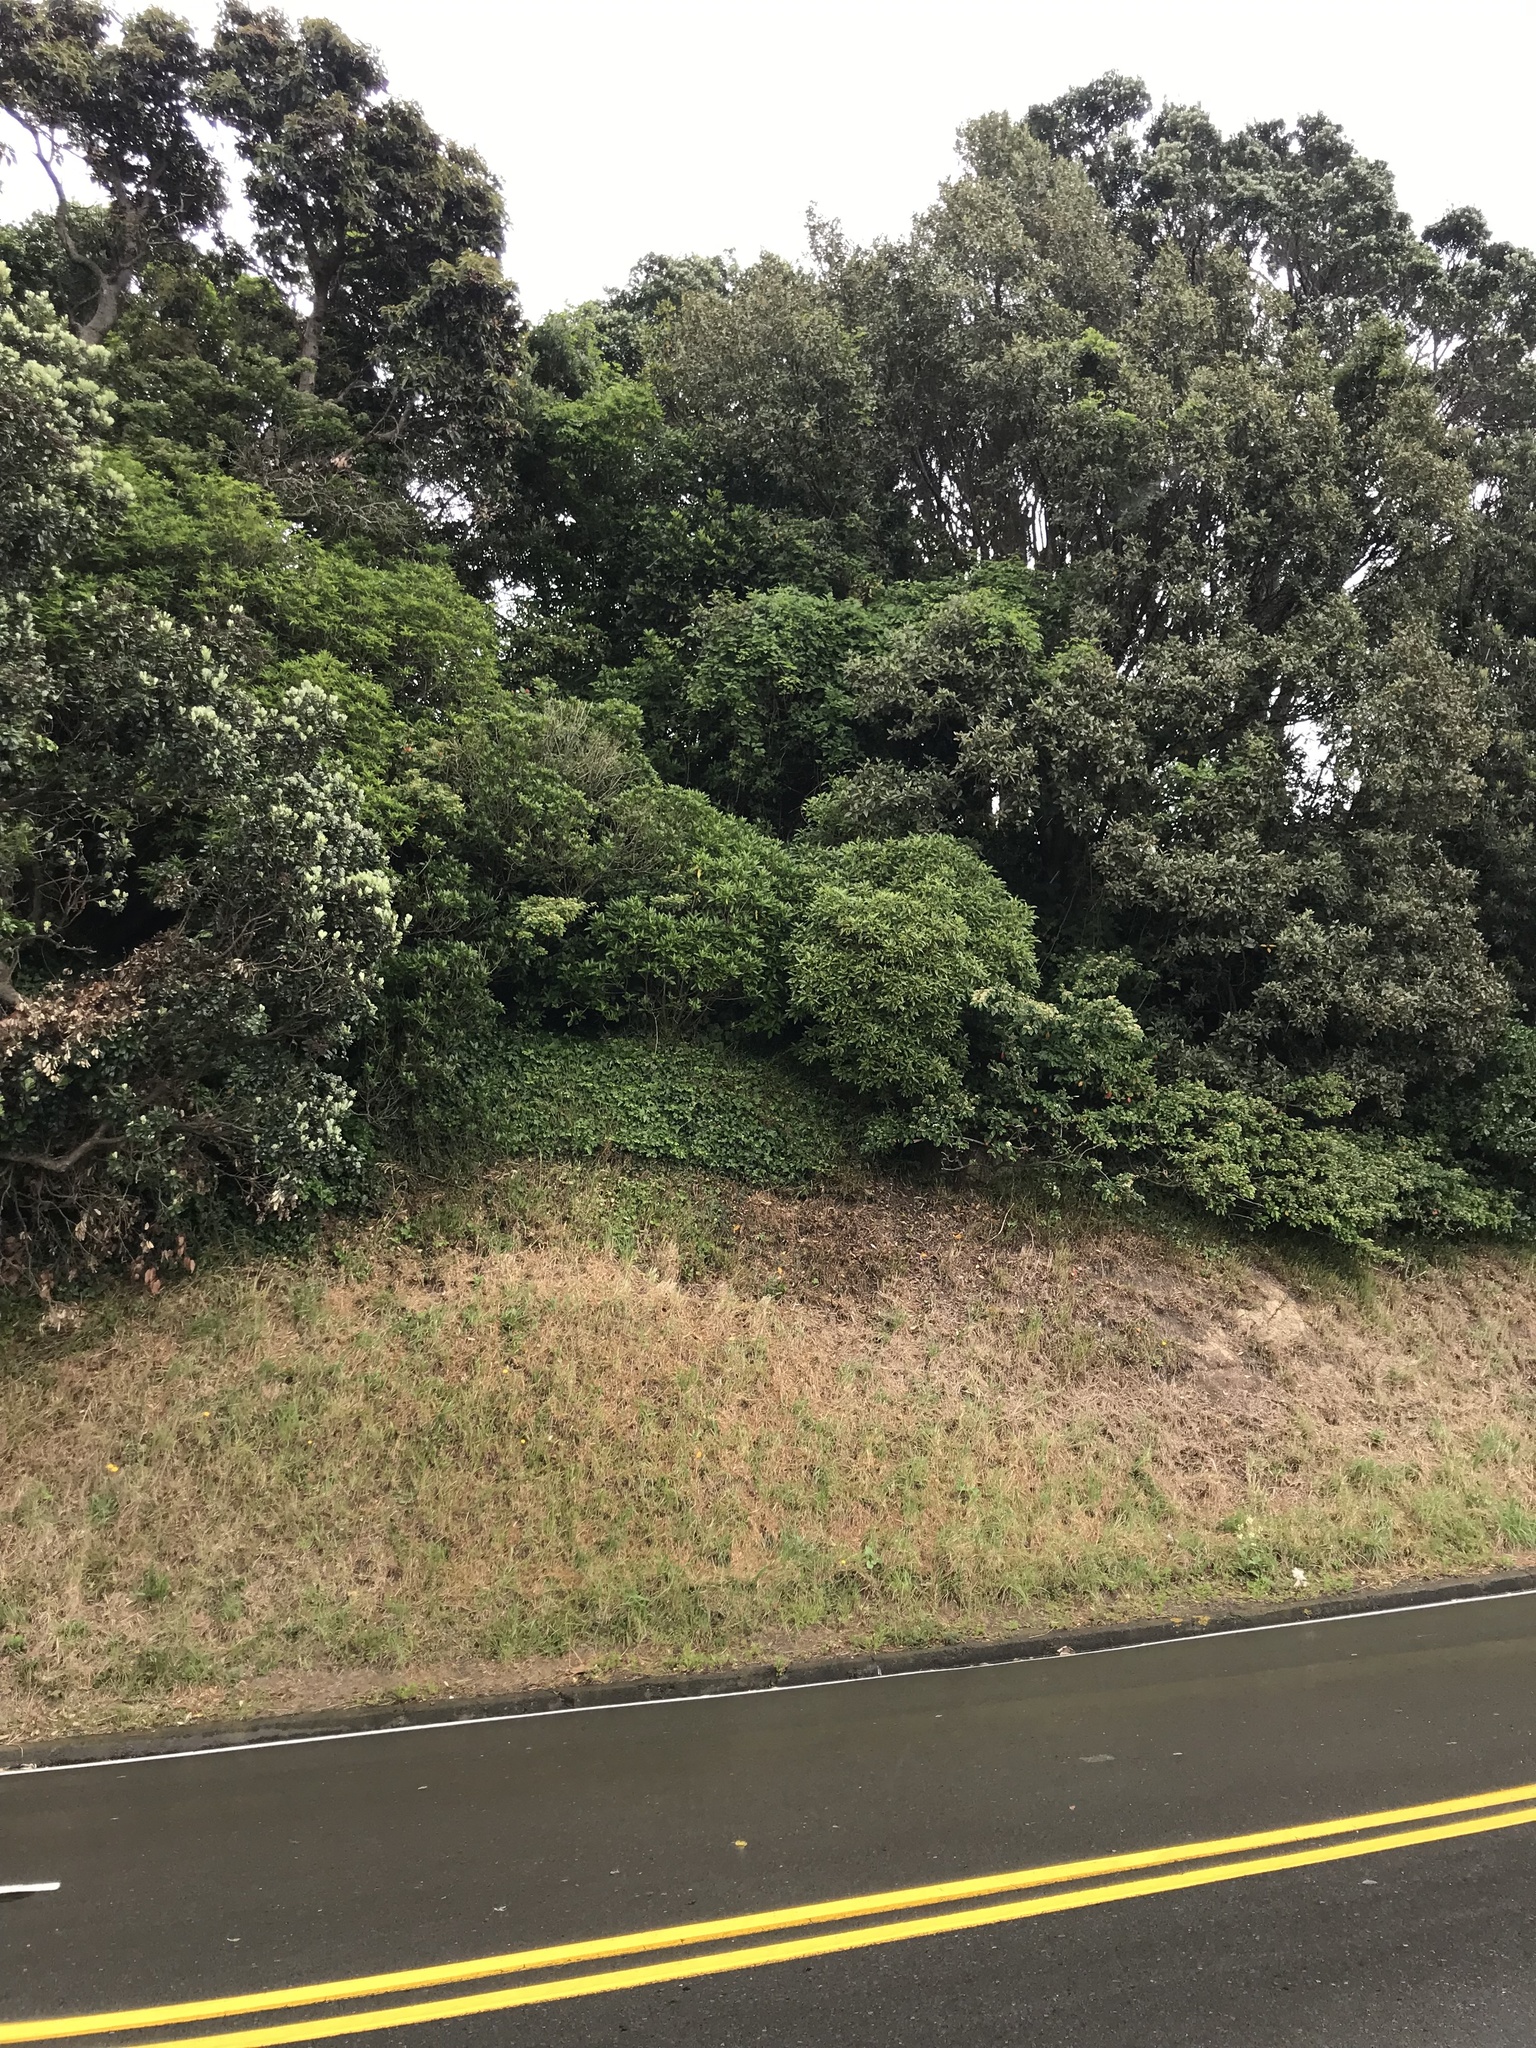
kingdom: Plantae
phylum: Tracheophyta
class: Magnoliopsida
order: Ranunculales
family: Ranunculaceae
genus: Clematis
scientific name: Clematis vitalba
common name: Evergreen clematis
